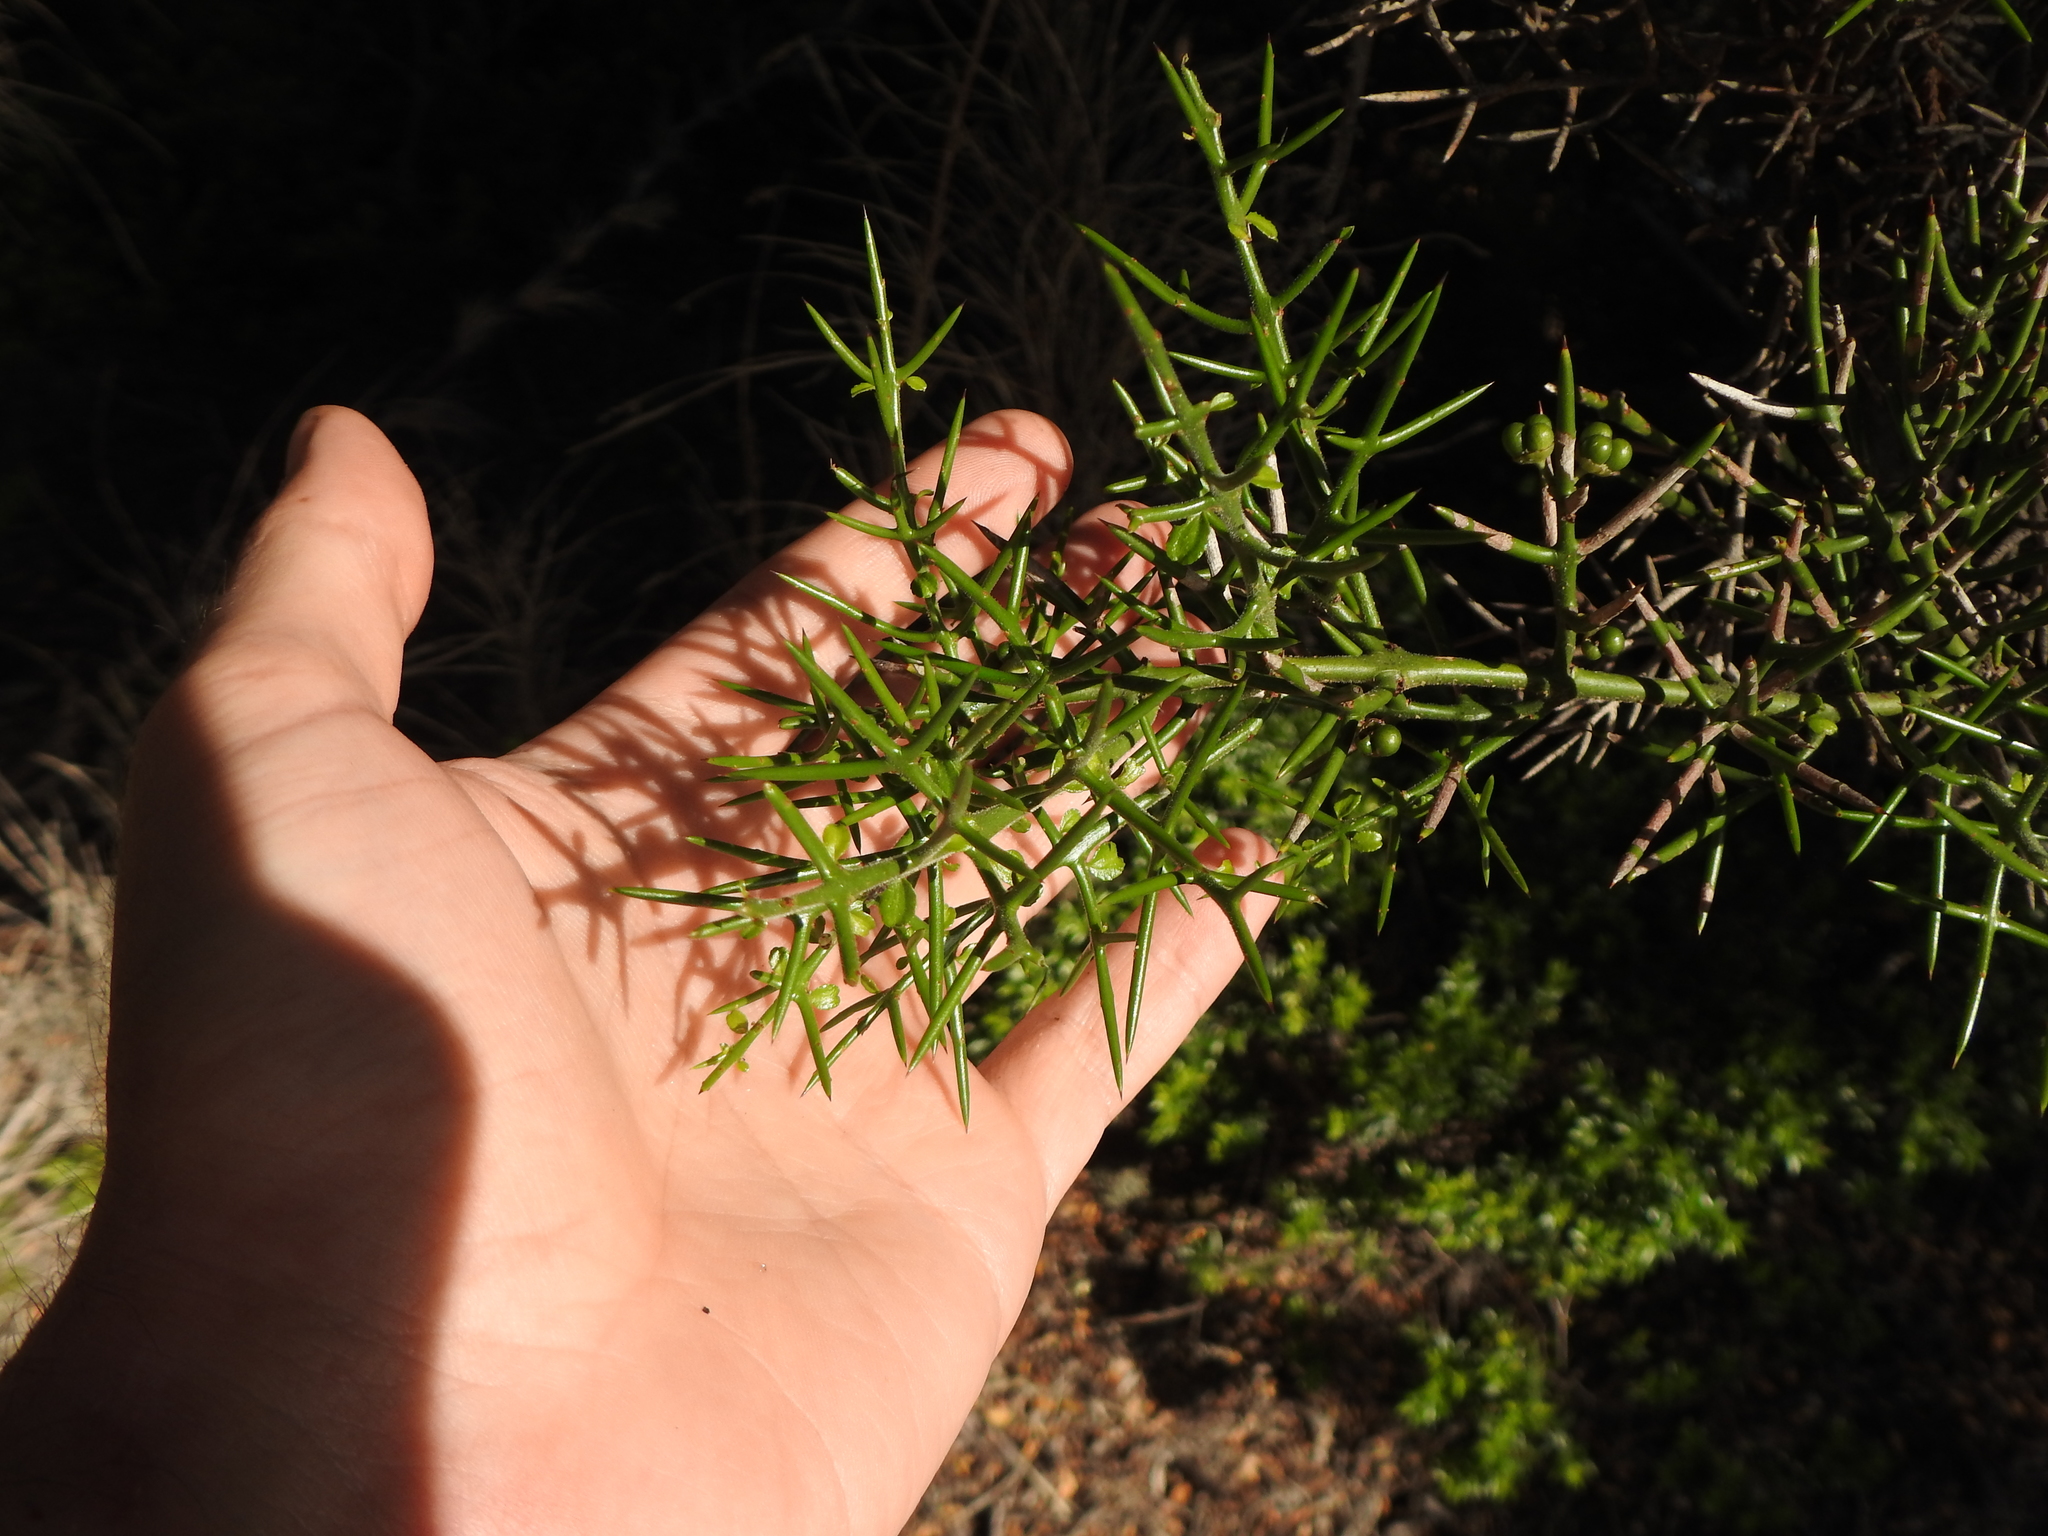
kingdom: Plantae
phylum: Tracheophyta
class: Magnoliopsida
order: Rosales
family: Rhamnaceae
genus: Colletia
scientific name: Colletia hystrix
